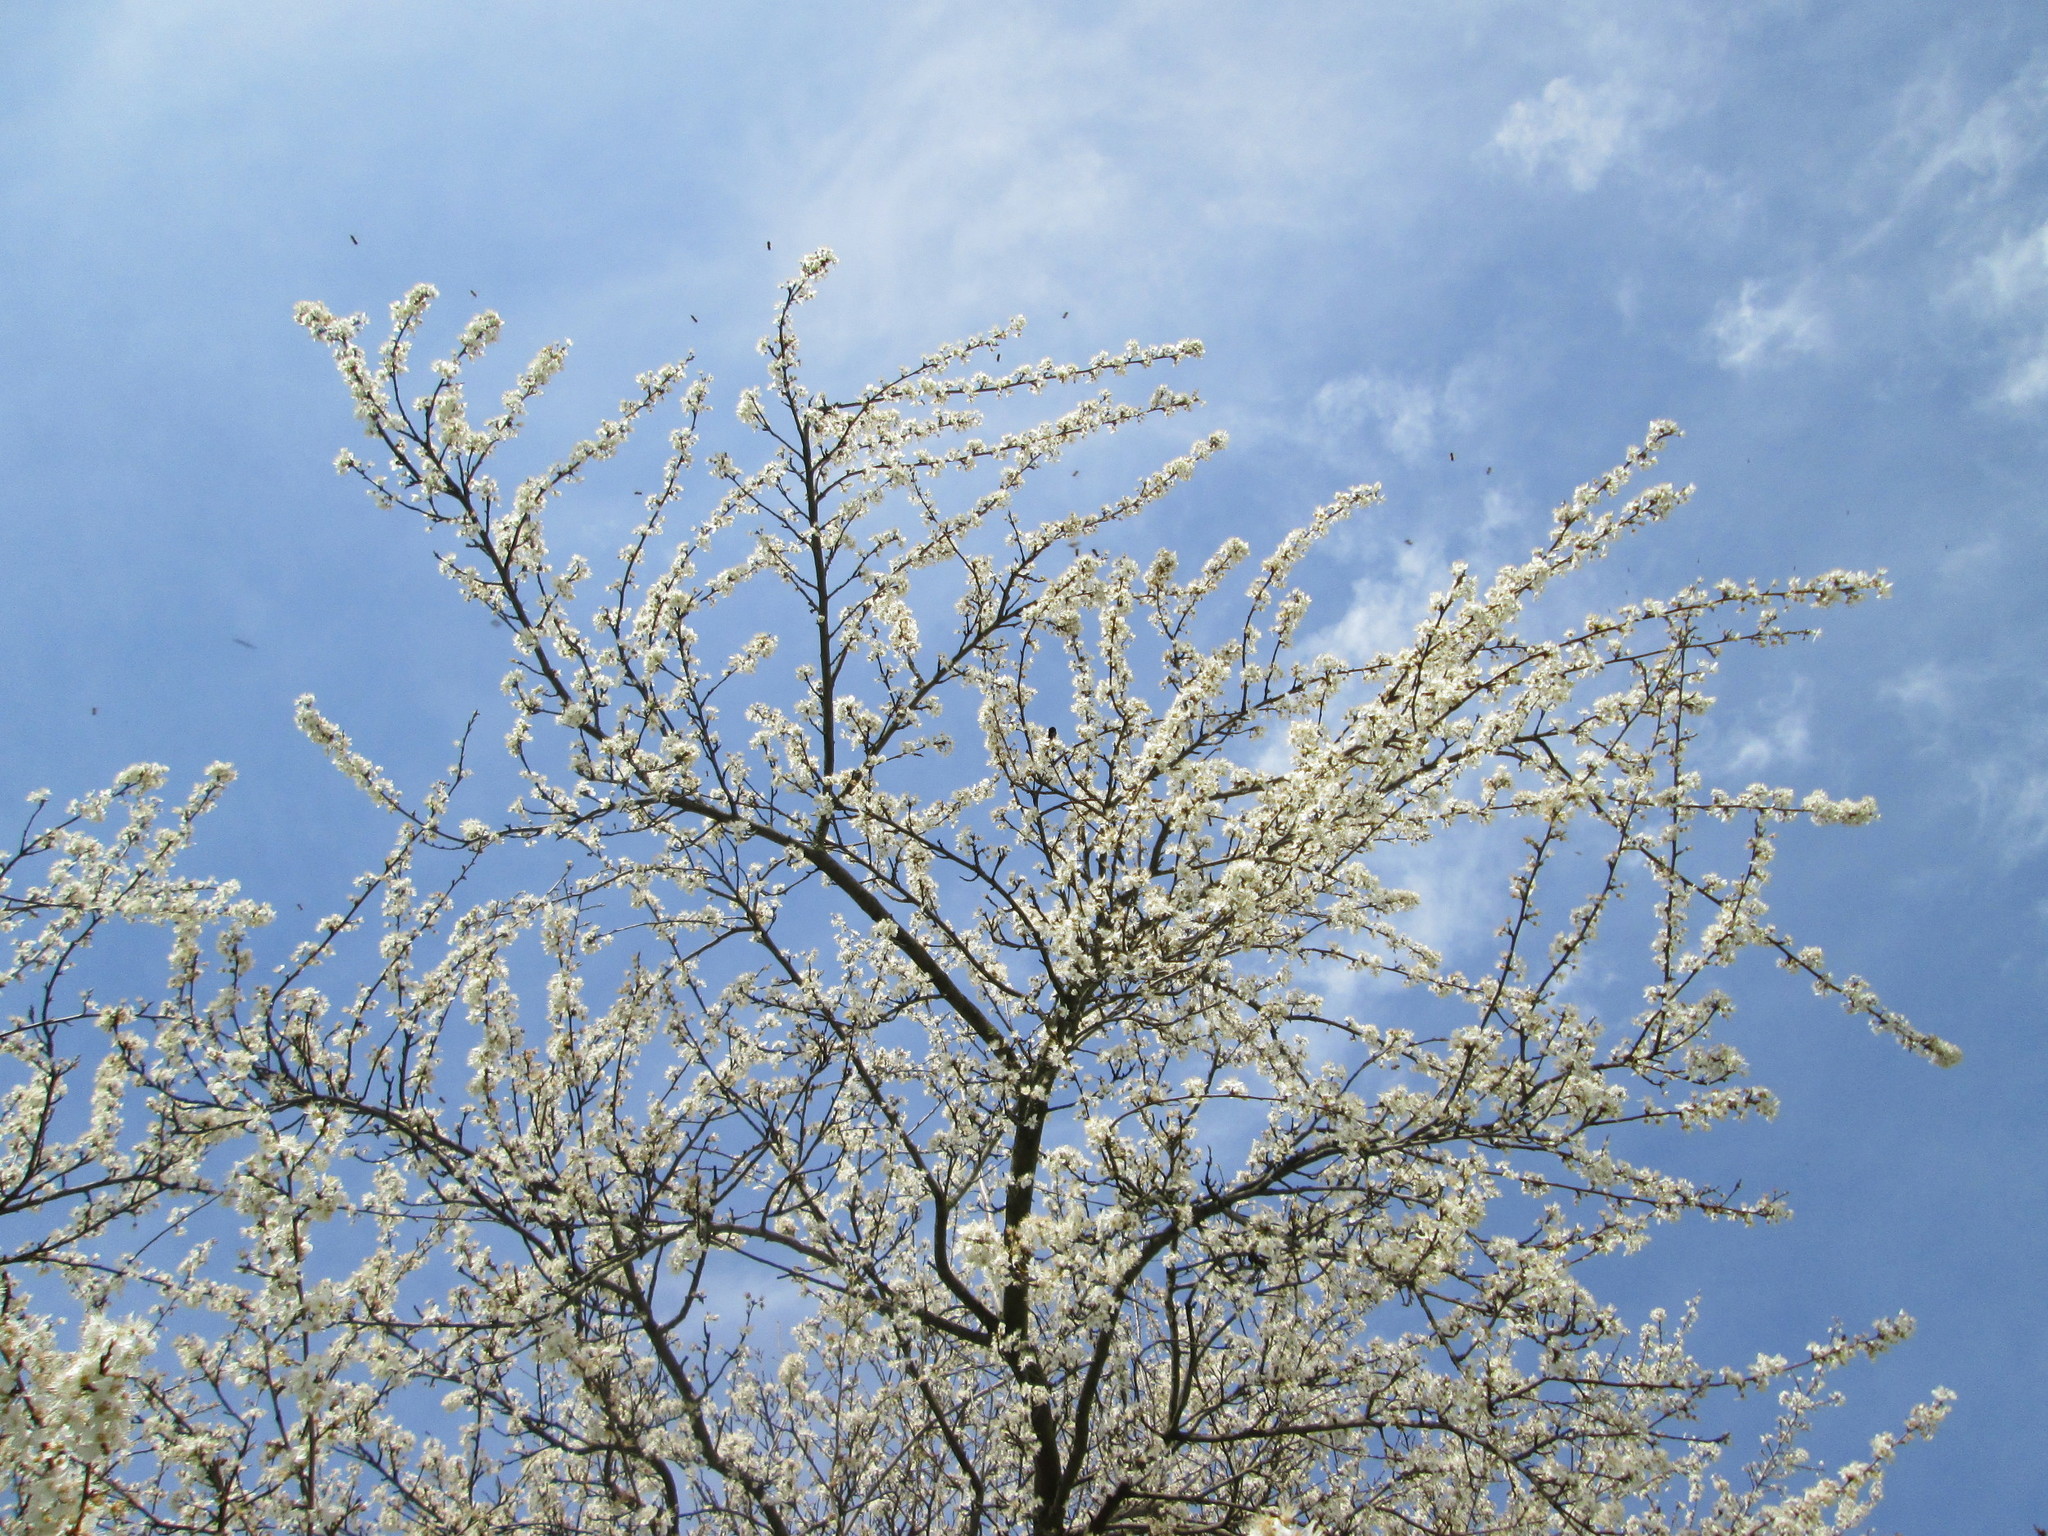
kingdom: Plantae
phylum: Tracheophyta
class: Magnoliopsida
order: Rosales
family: Rosaceae
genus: Prunus
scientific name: Prunus cerasifera
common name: Cherry plum
